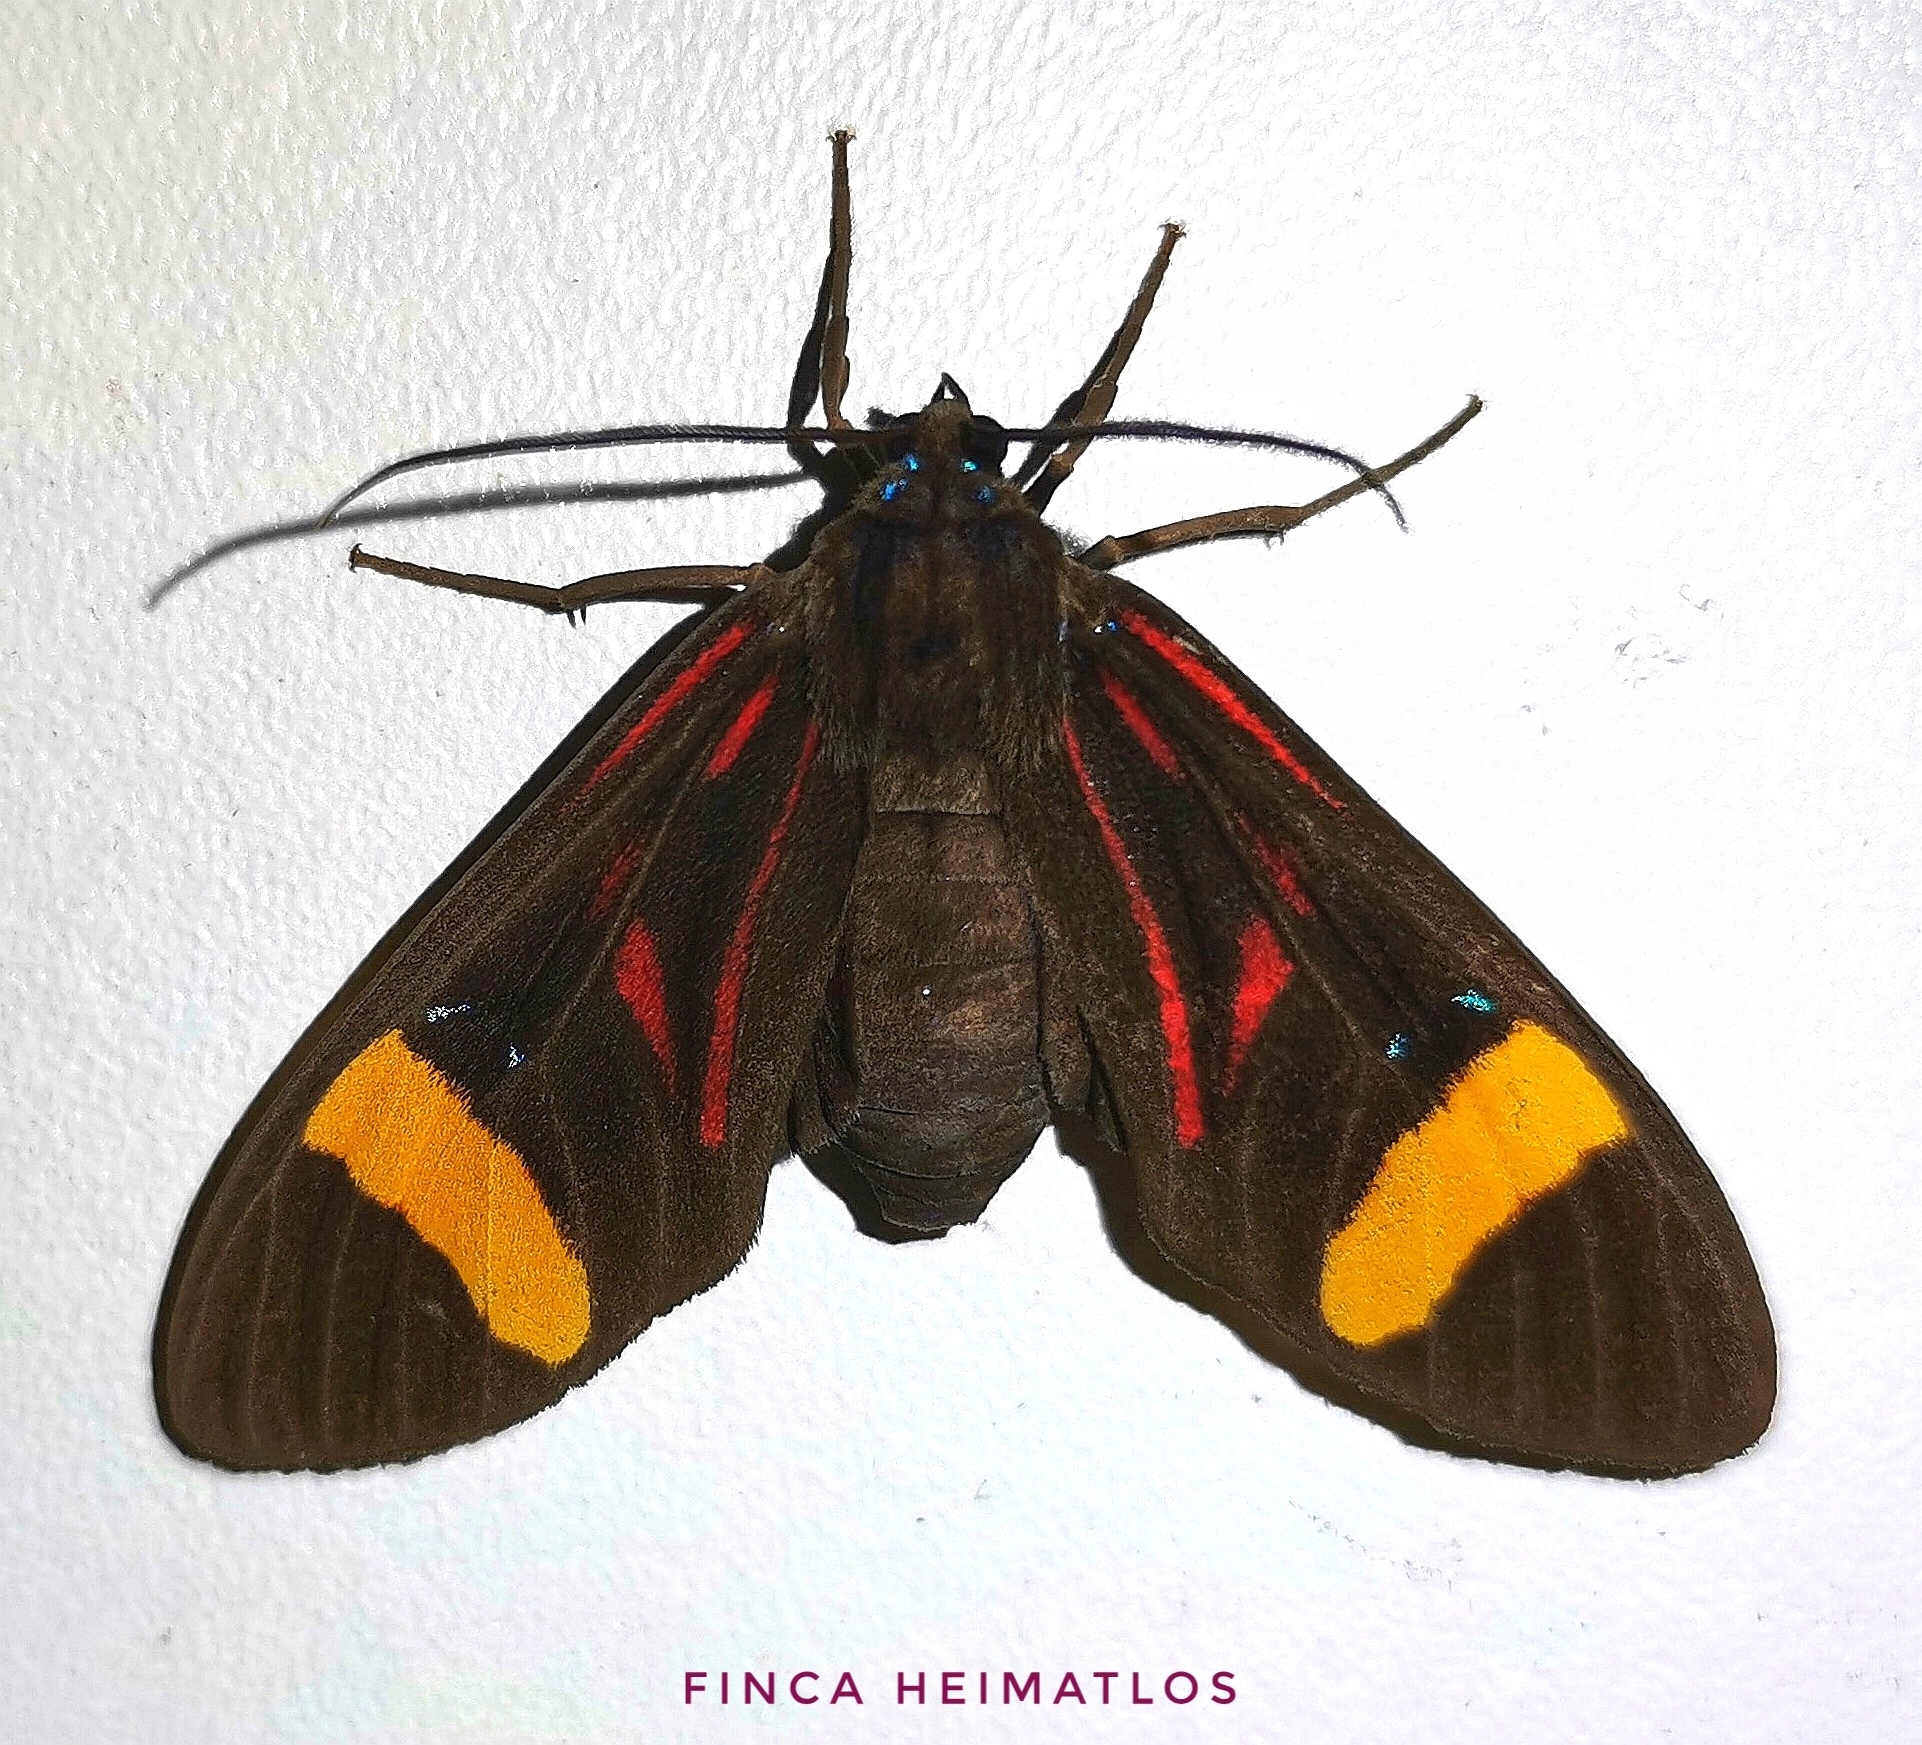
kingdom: Animalia
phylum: Arthropoda
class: Insecta
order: Lepidoptera
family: Erebidae
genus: Histioea
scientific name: Histioea proserpina
